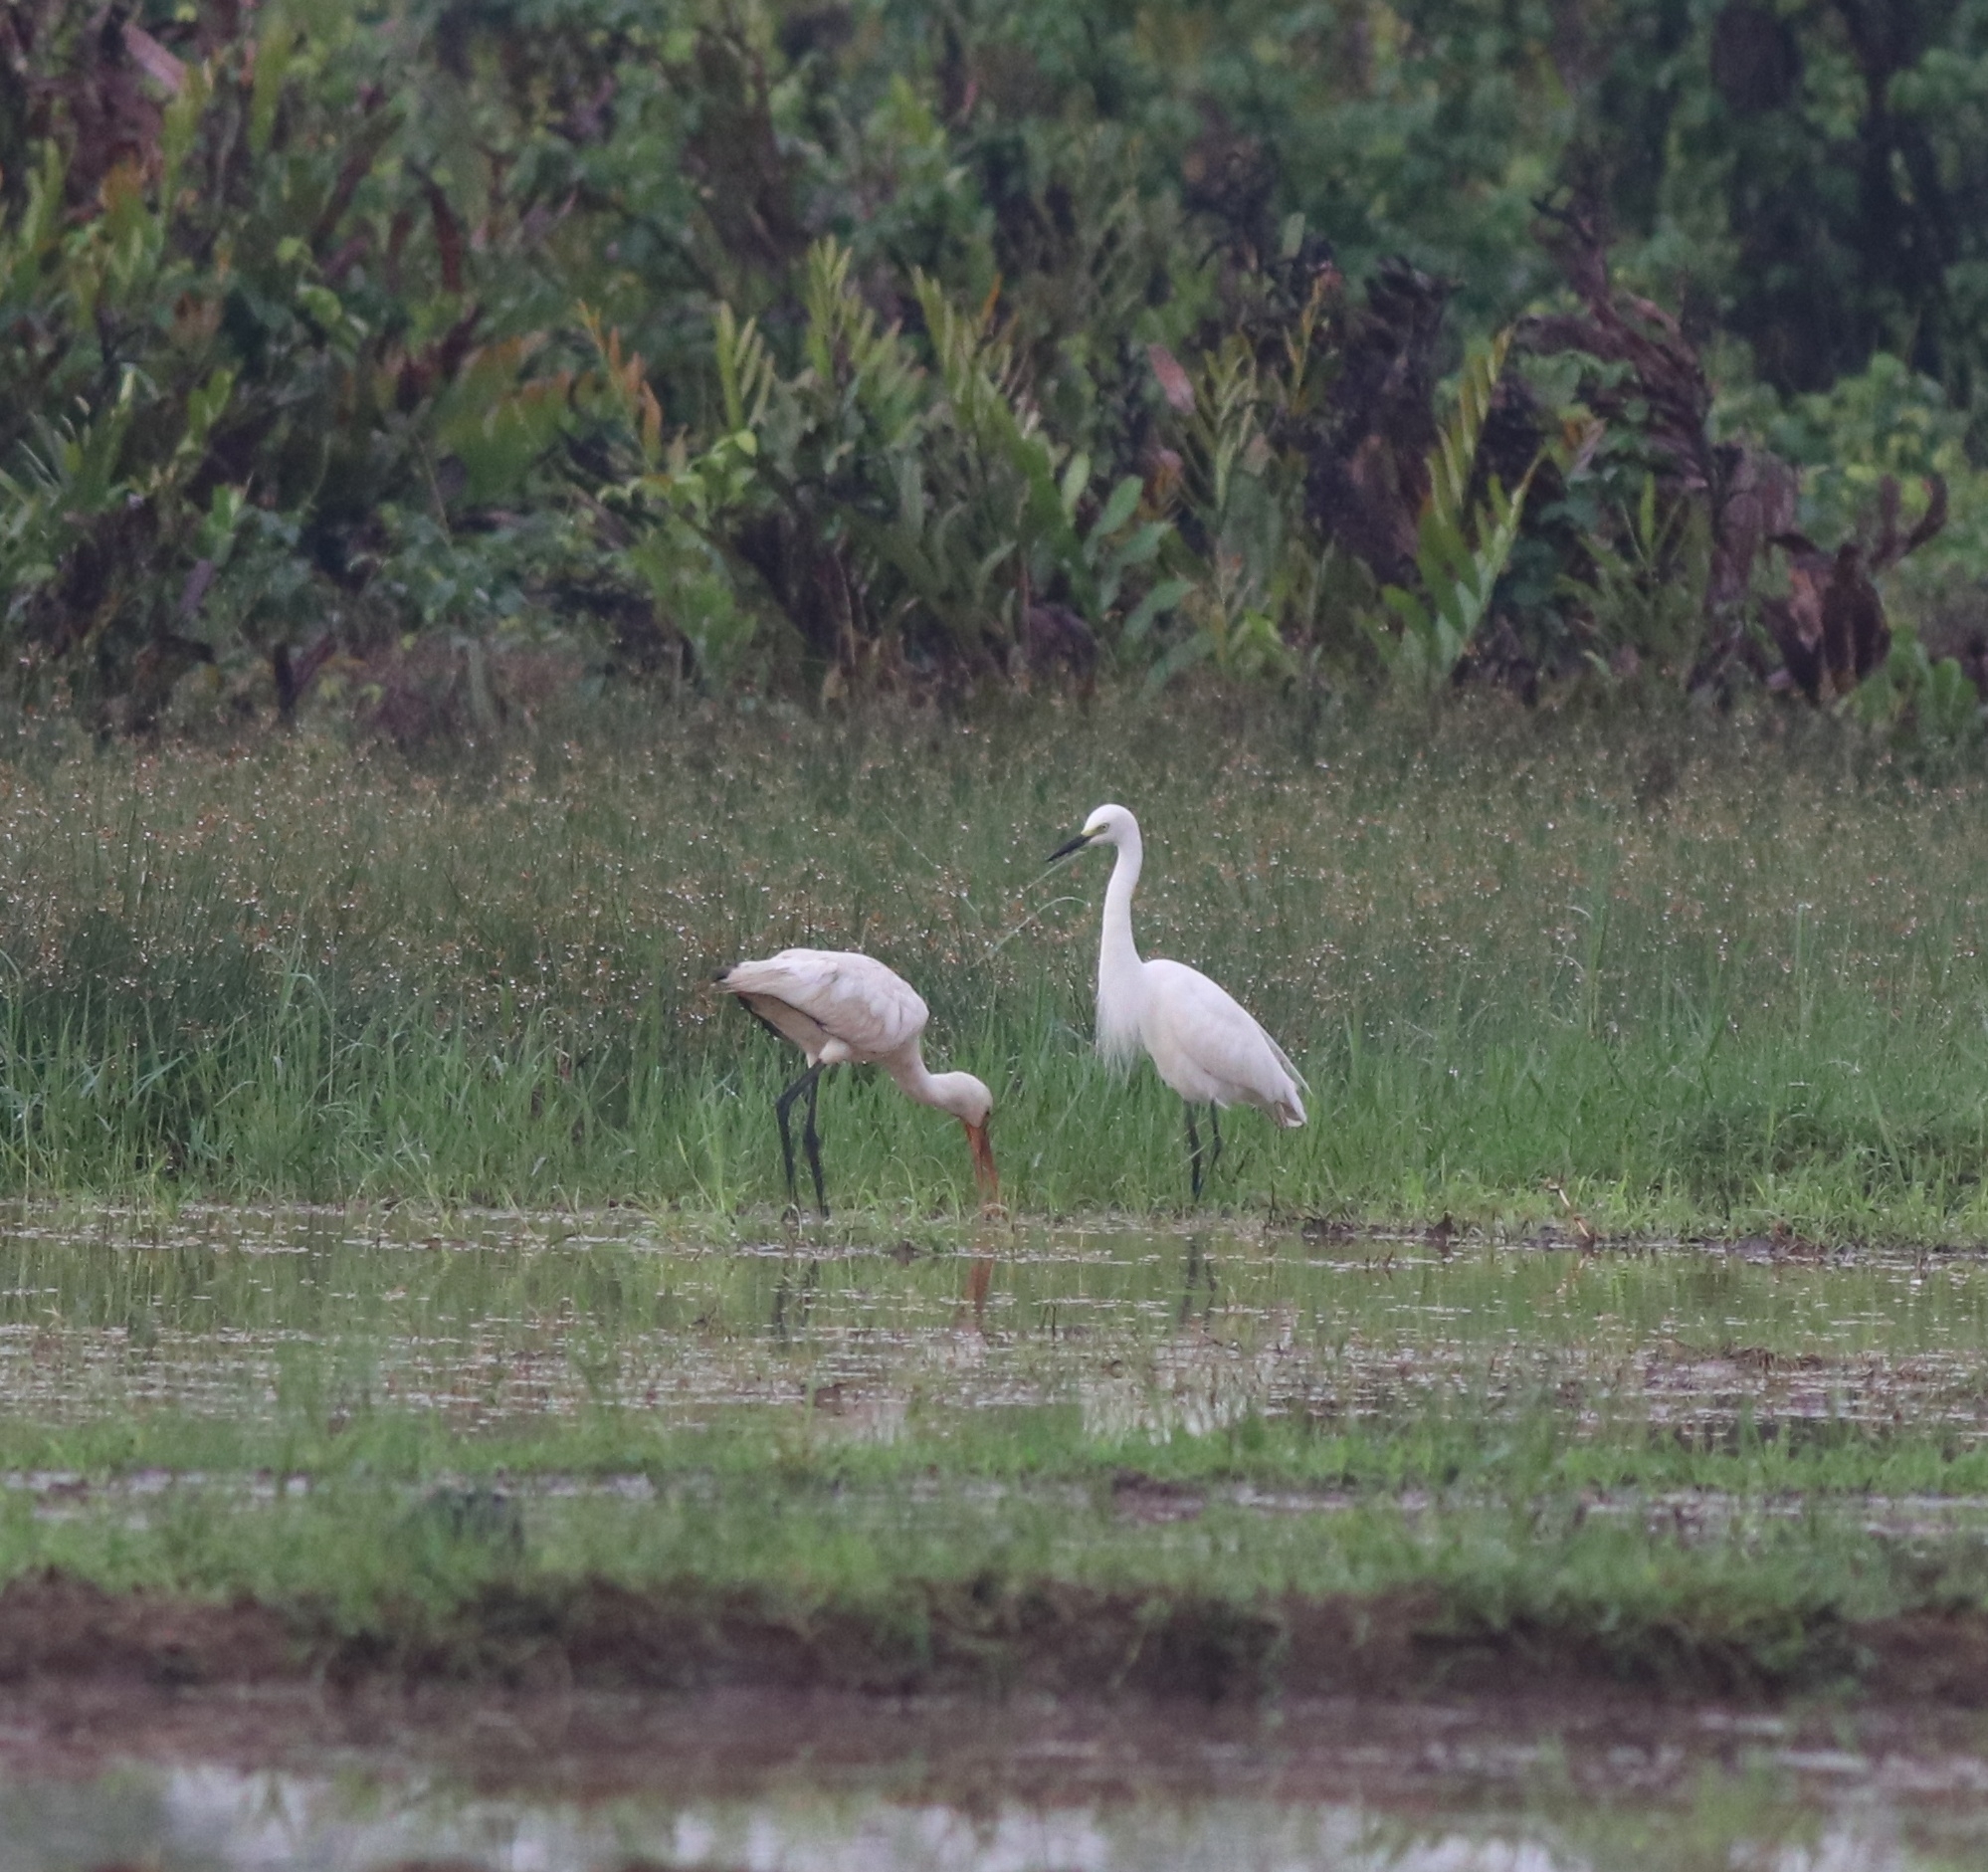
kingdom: Animalia
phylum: Chordata
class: Aves
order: Pelecaniformes
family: Ardeidae
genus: Egretta
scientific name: Egretta intermedia
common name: Intermediate egret
